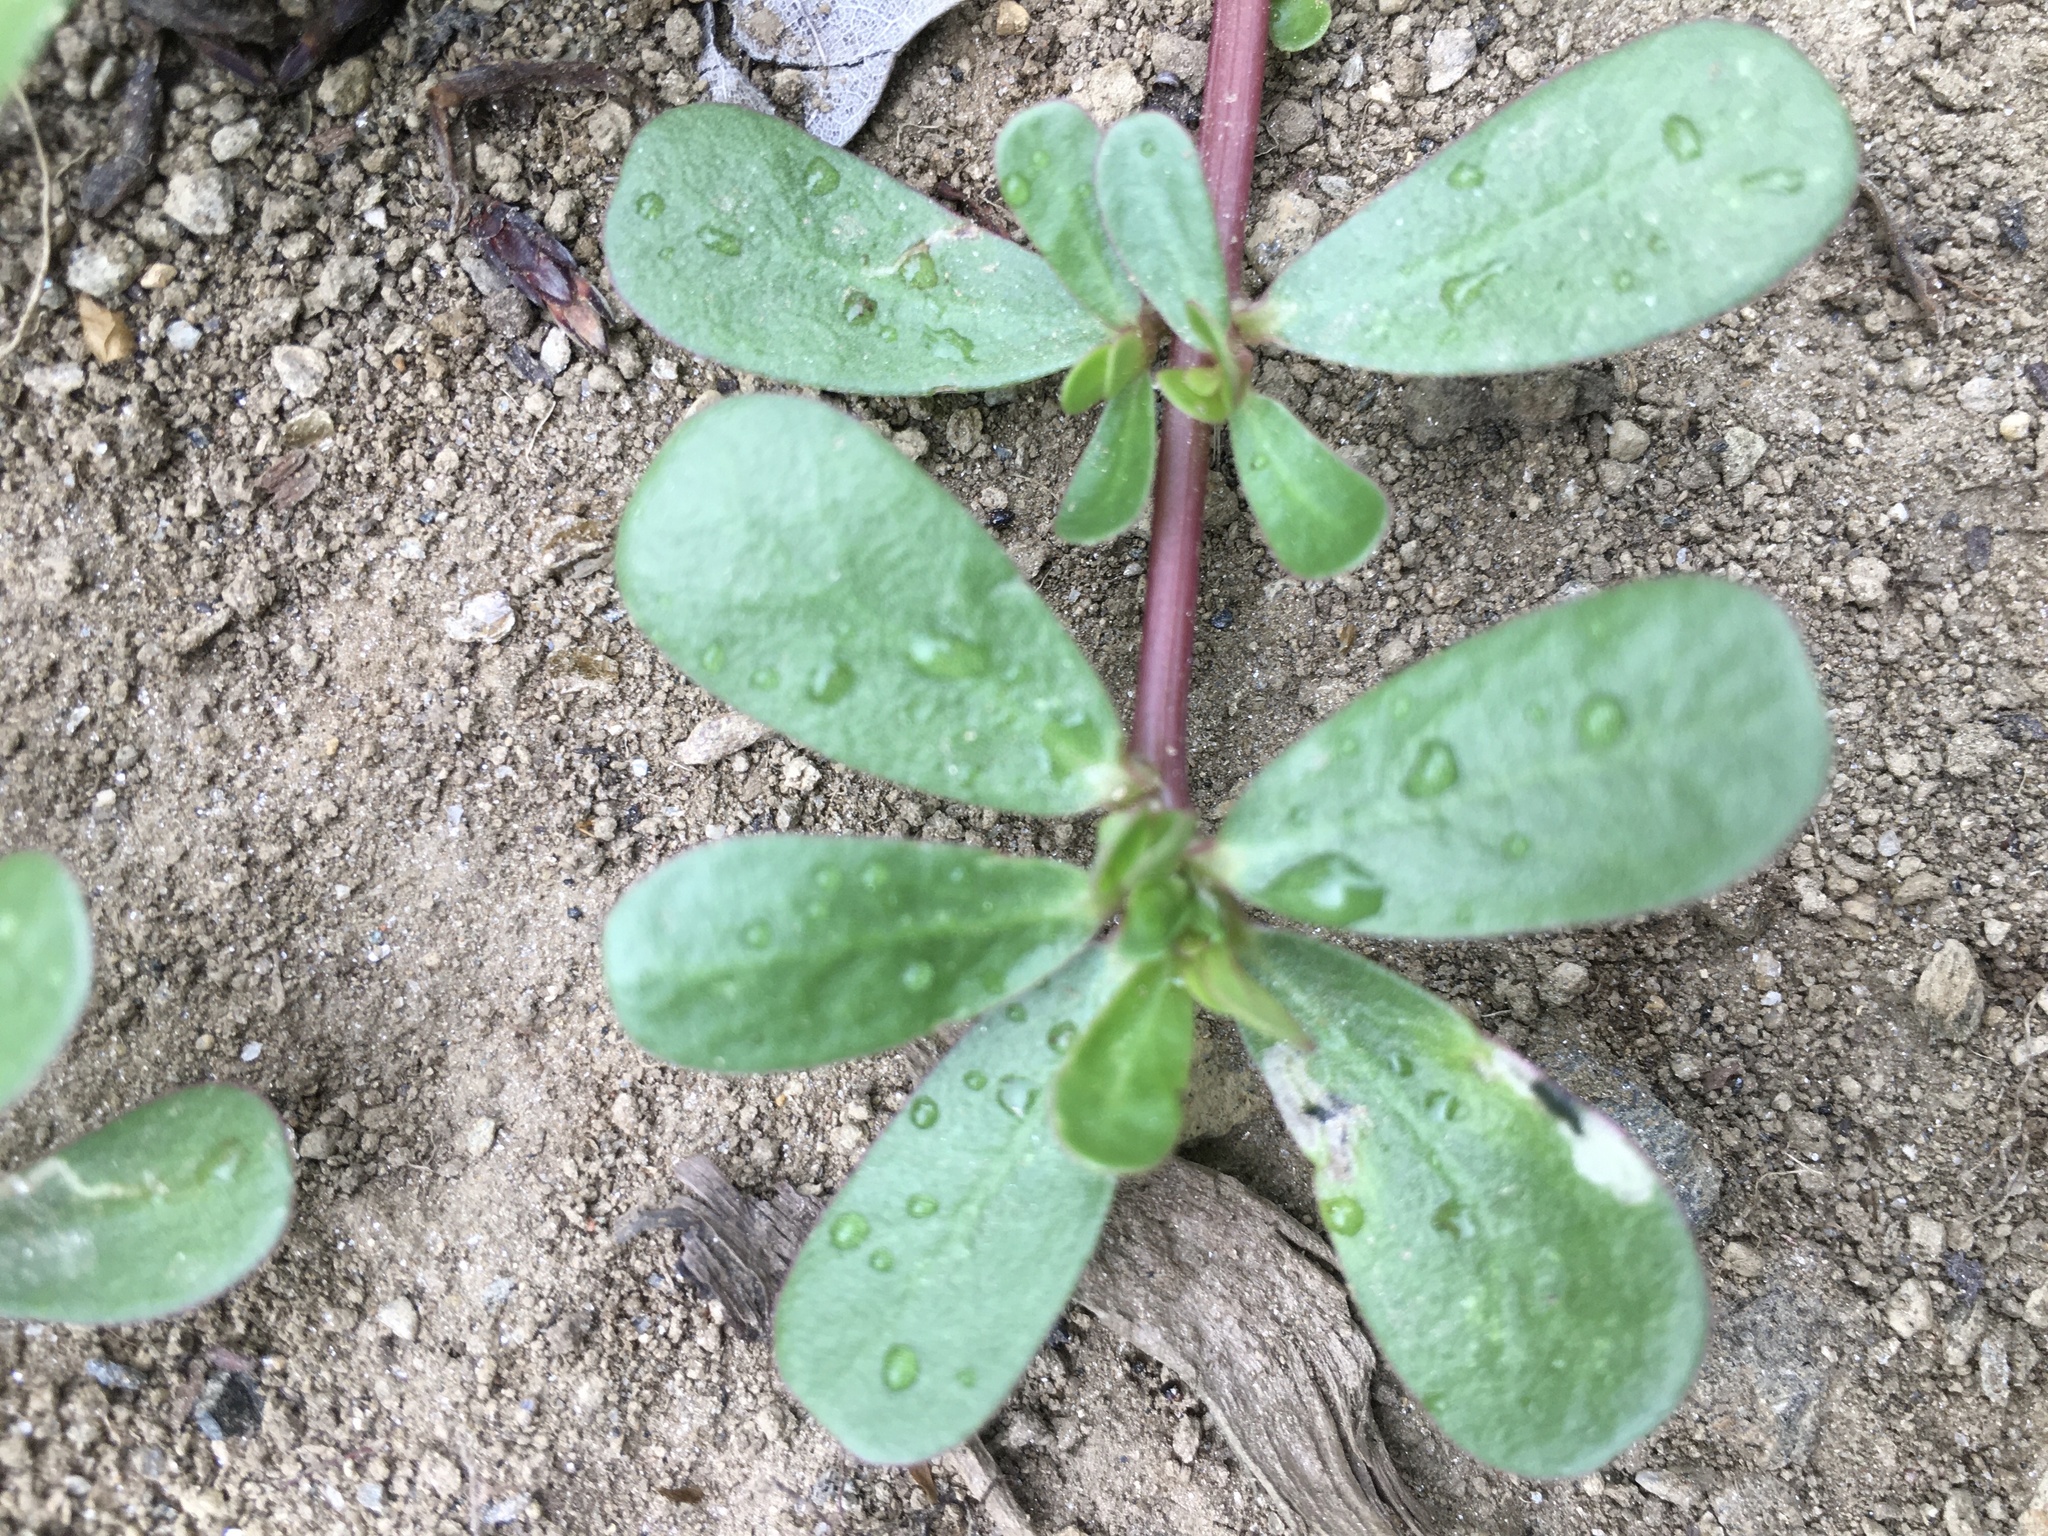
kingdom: Plantae
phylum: Tracheophyta
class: Magnoliopsida
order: Caryophyllales
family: Portulacaceae
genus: Portulaca
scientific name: Portulaca oleracea
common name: Common purslane
